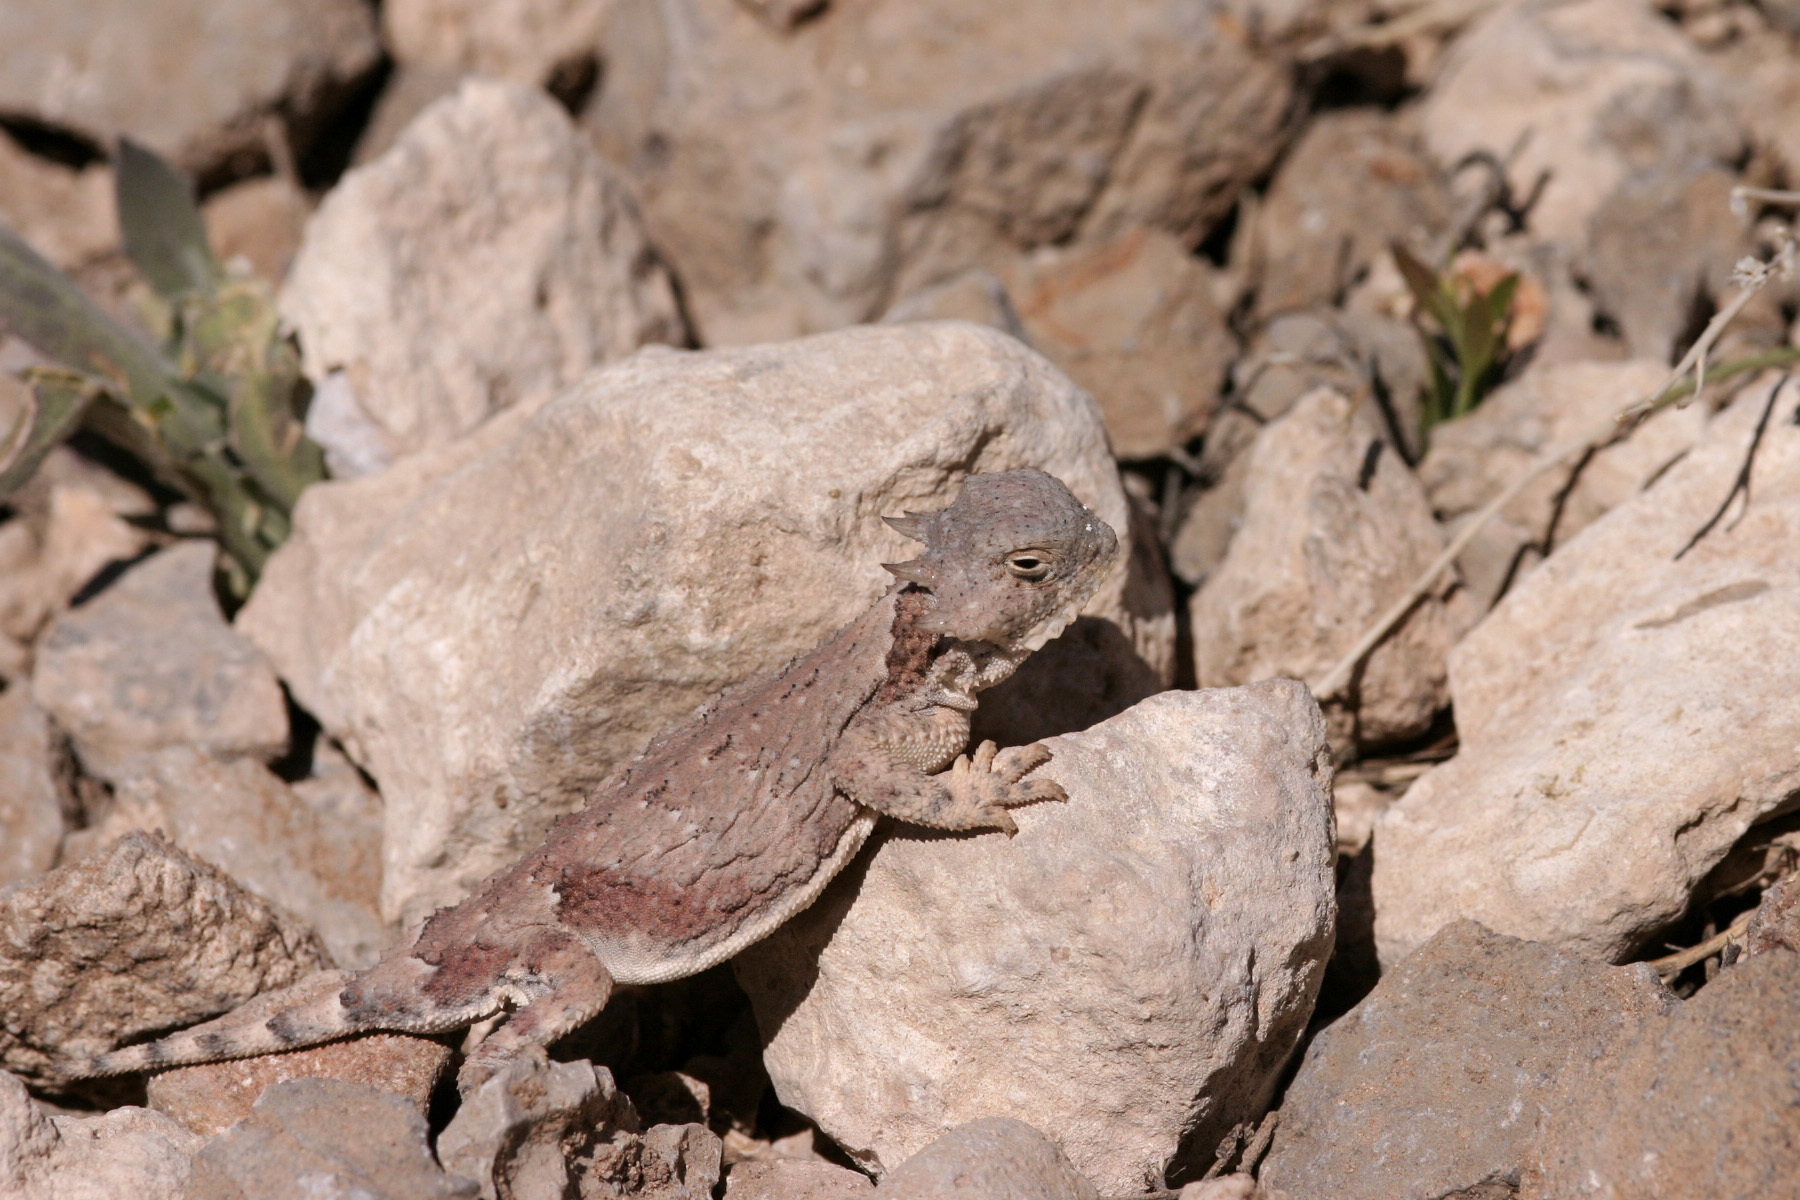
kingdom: Animalia
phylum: Chordata
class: Squamata
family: Phrynosomatidae
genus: Phrynosoma
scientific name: Phrynosoma modestum
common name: Roundtail horned lizard
